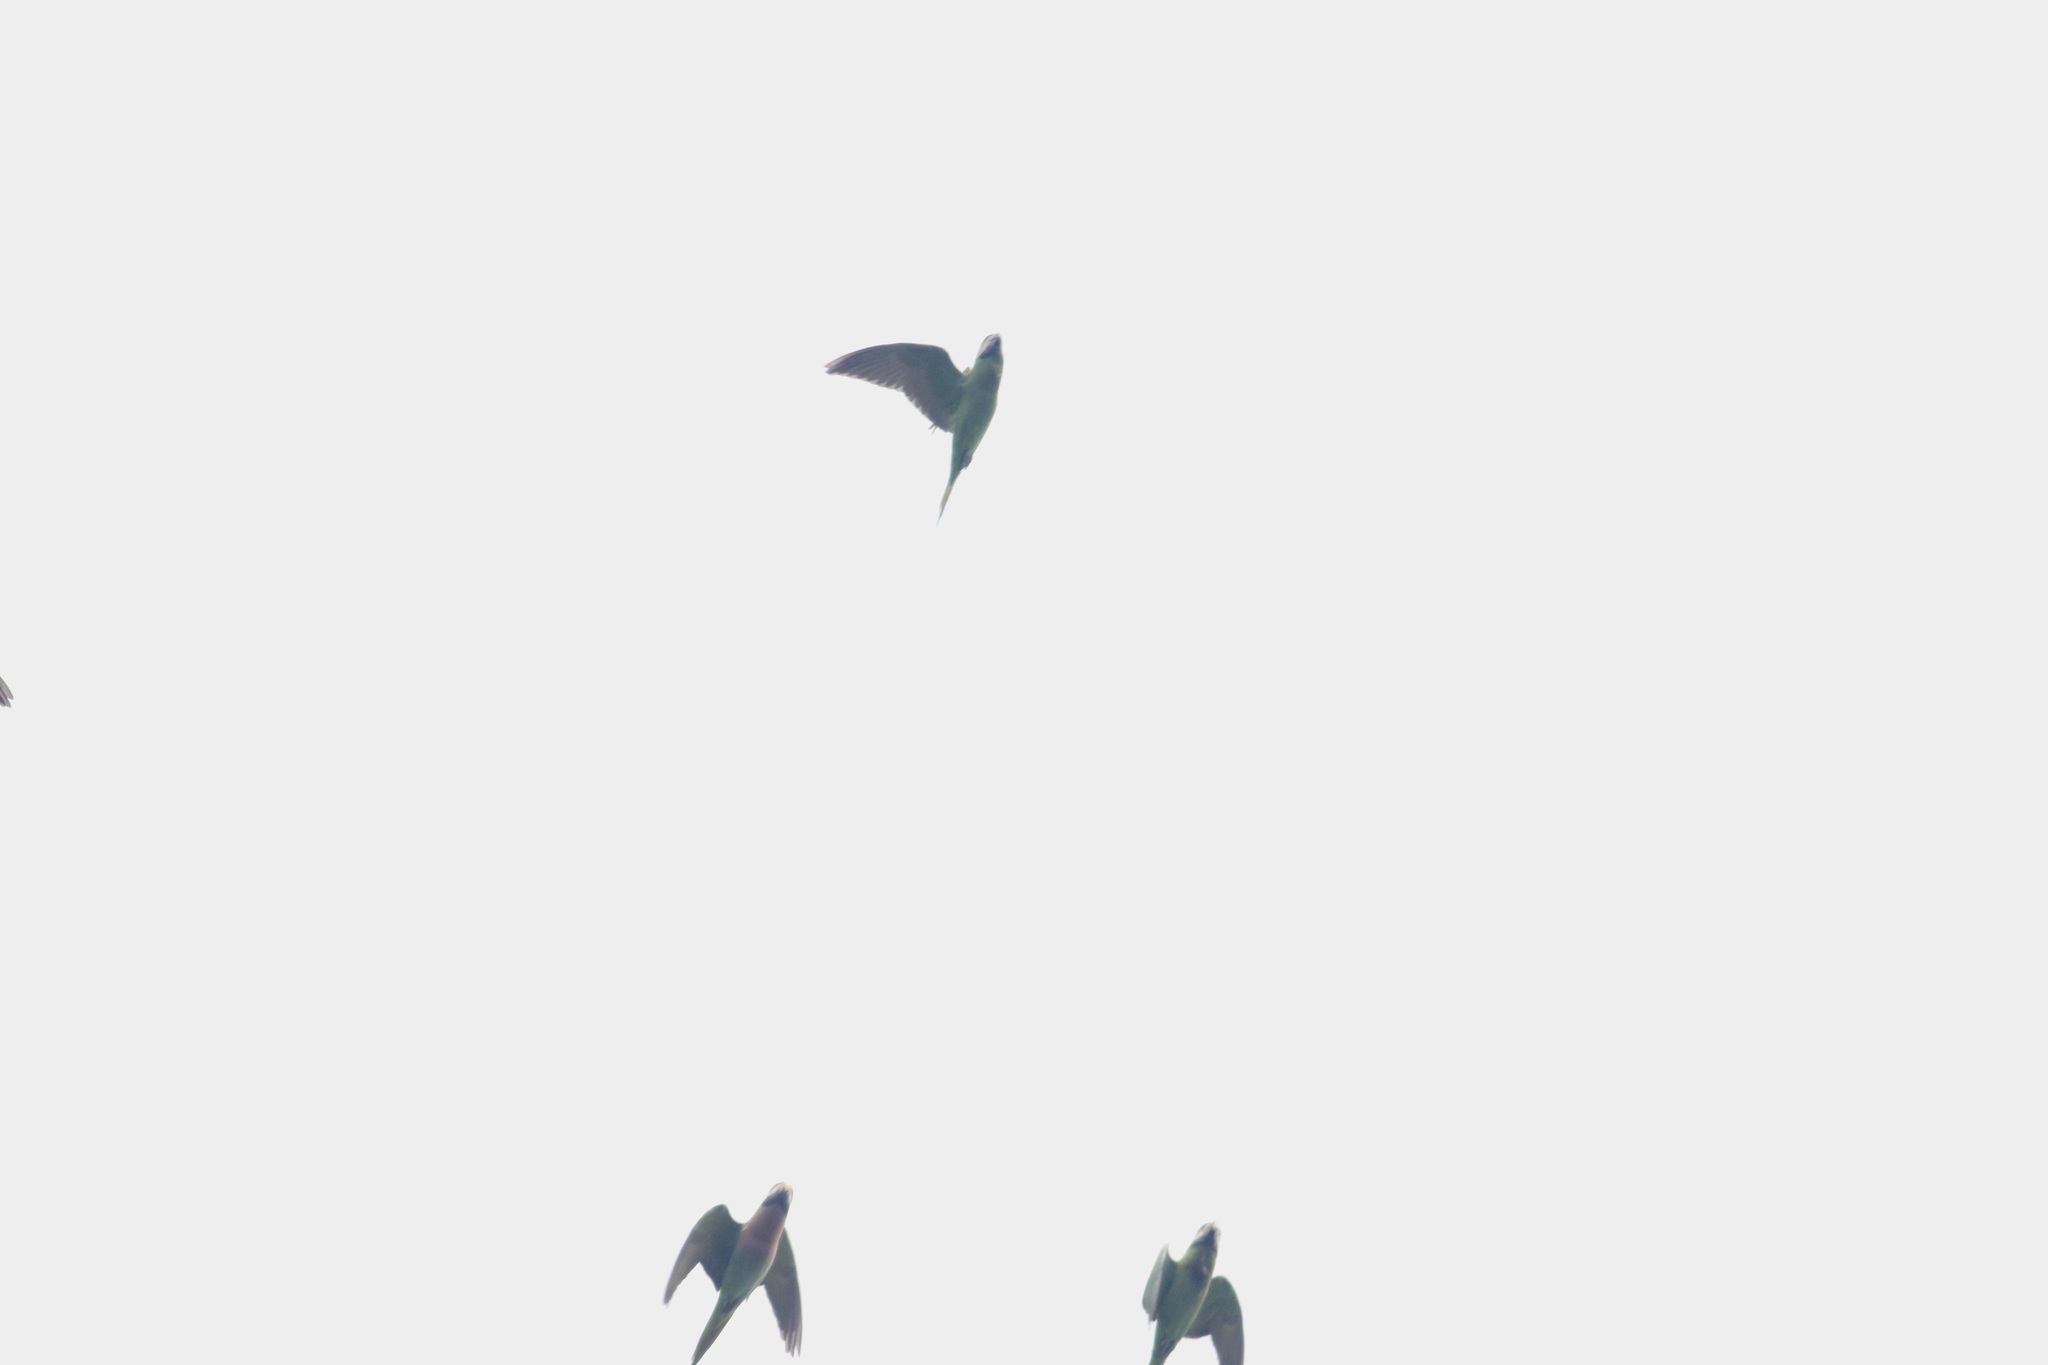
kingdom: Animalia
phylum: Chordata
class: Aves
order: Psittaciformes
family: Psittacidae
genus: Psittacula
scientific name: Psittacula alexandri
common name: Red-breasted parakeet
